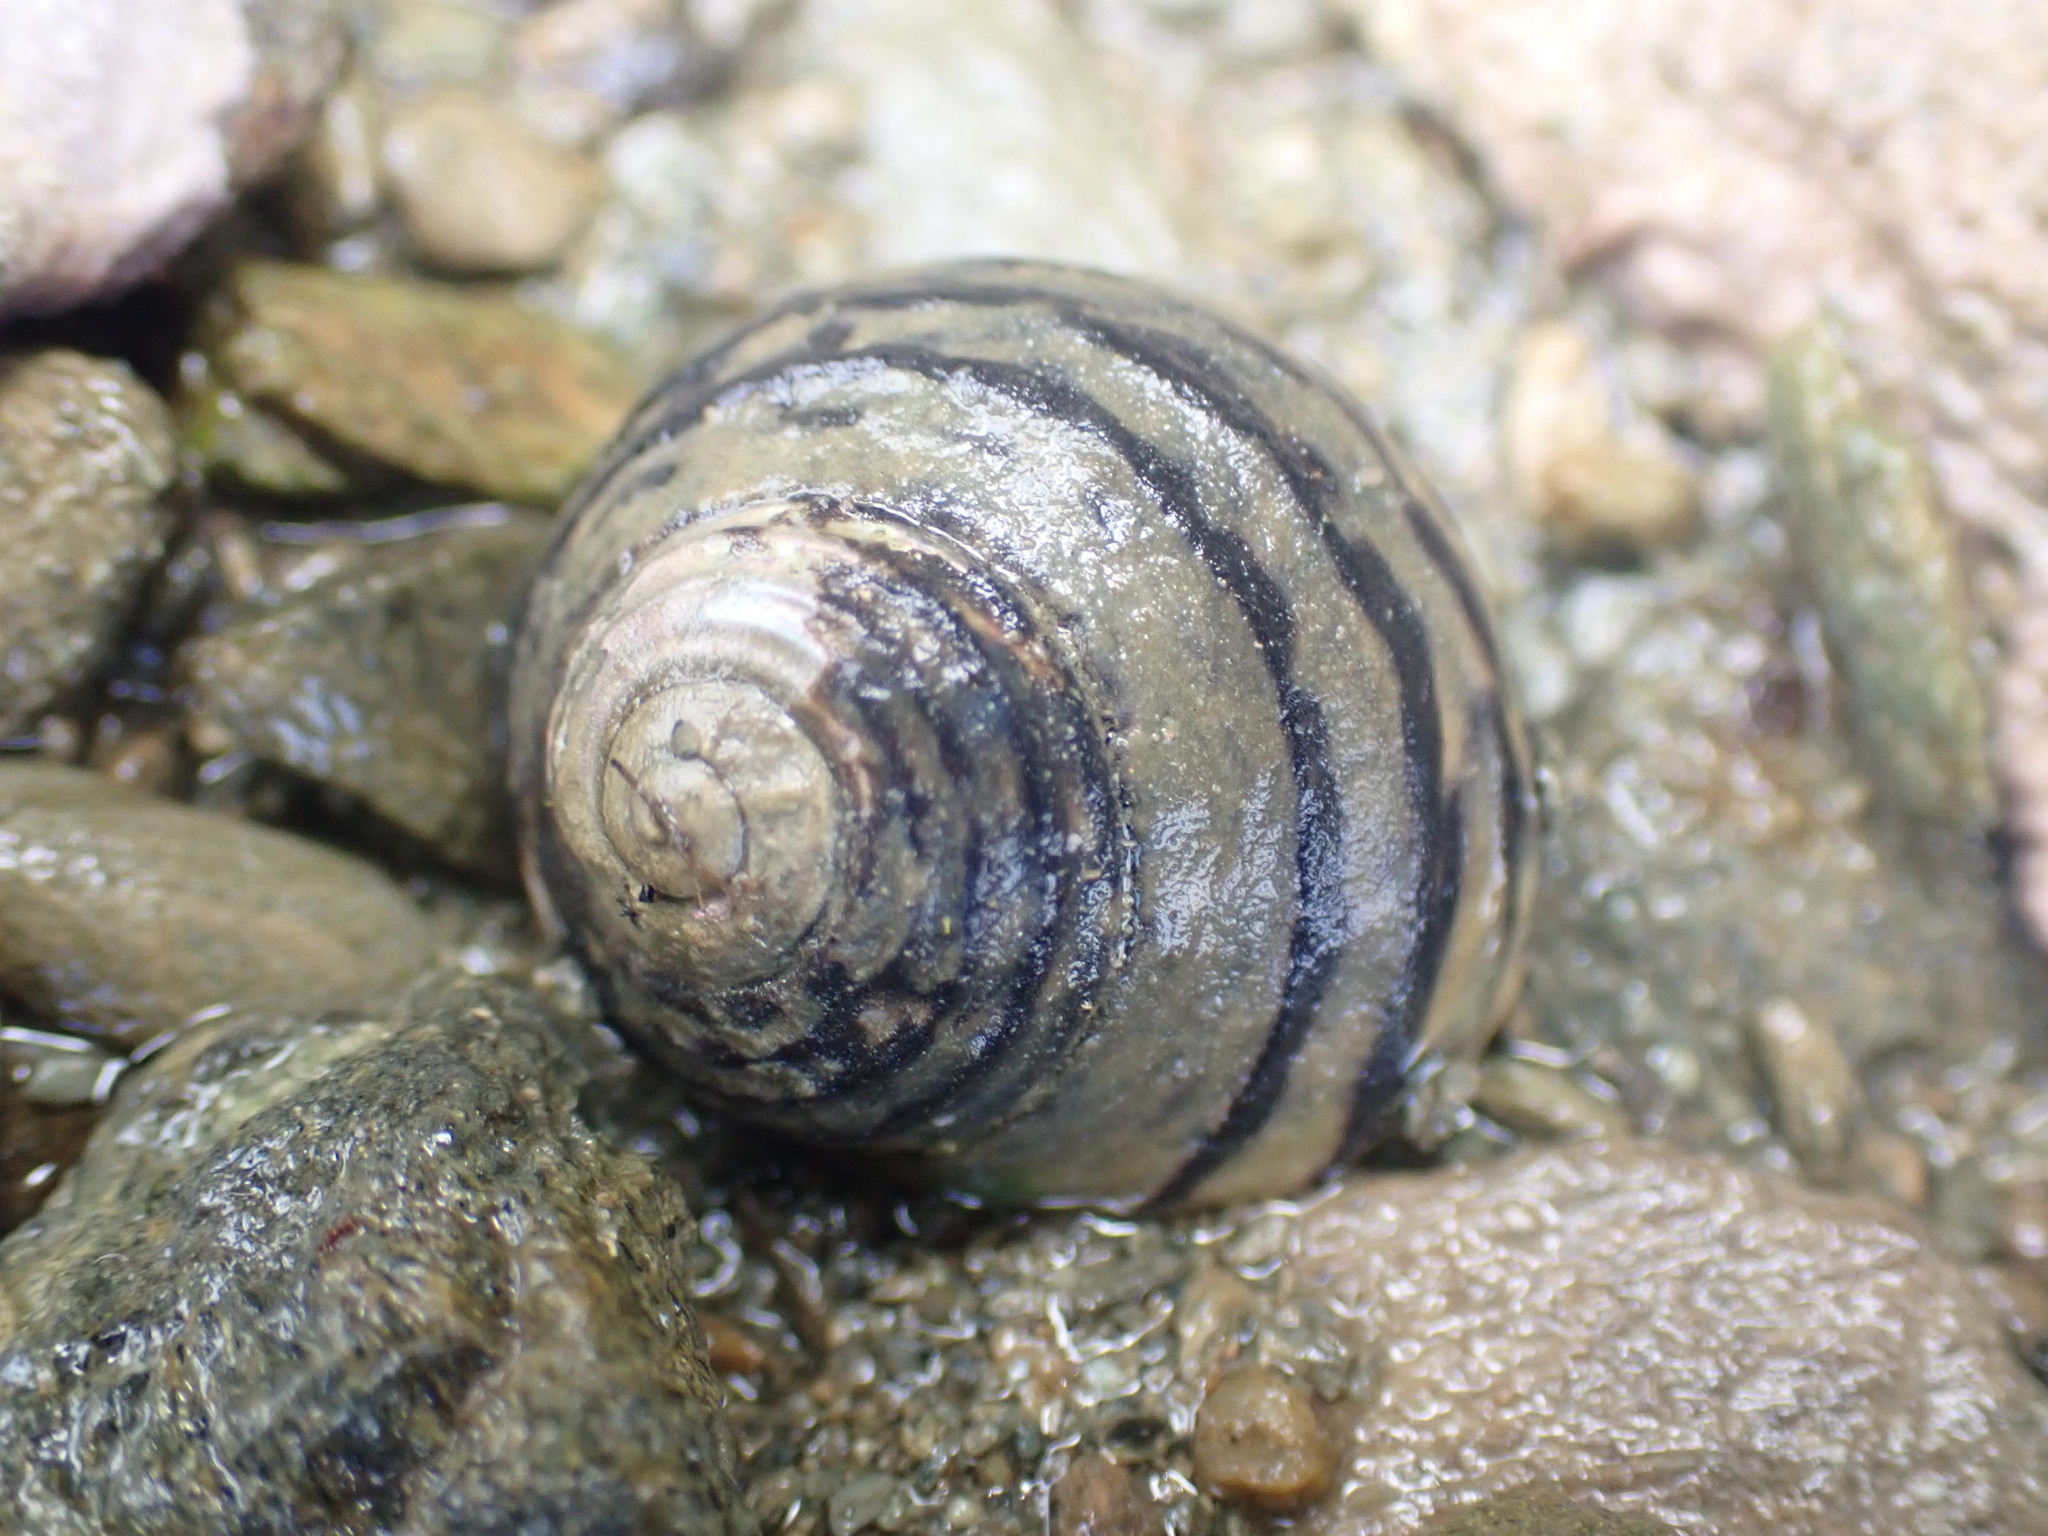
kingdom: Animalia
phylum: Mollusca
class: Gastropoda
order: Trochida
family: Trochidae
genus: Diloma
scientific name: Diloma subrostratum
